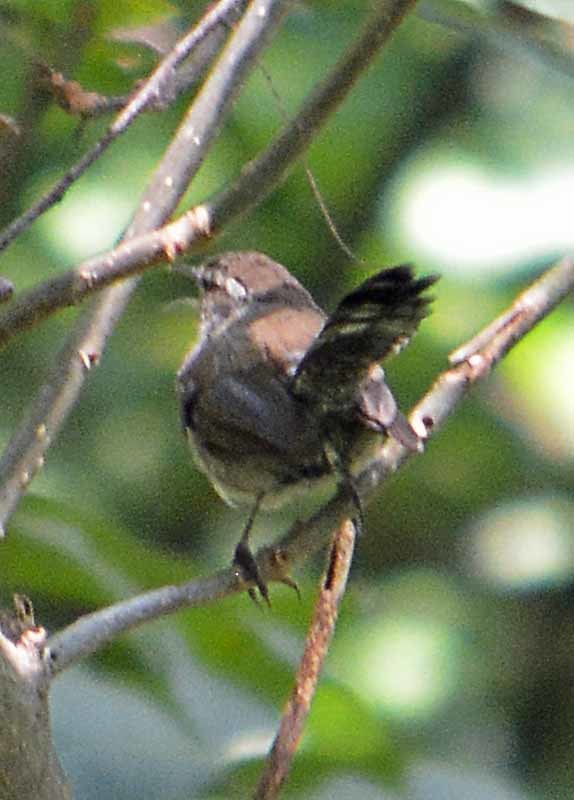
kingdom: Animalia
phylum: Chordata
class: Aves
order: Passeriformes
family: Troglodytidae
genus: Thryomanes
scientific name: Thryomanes bewickii
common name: Bewick's wren
